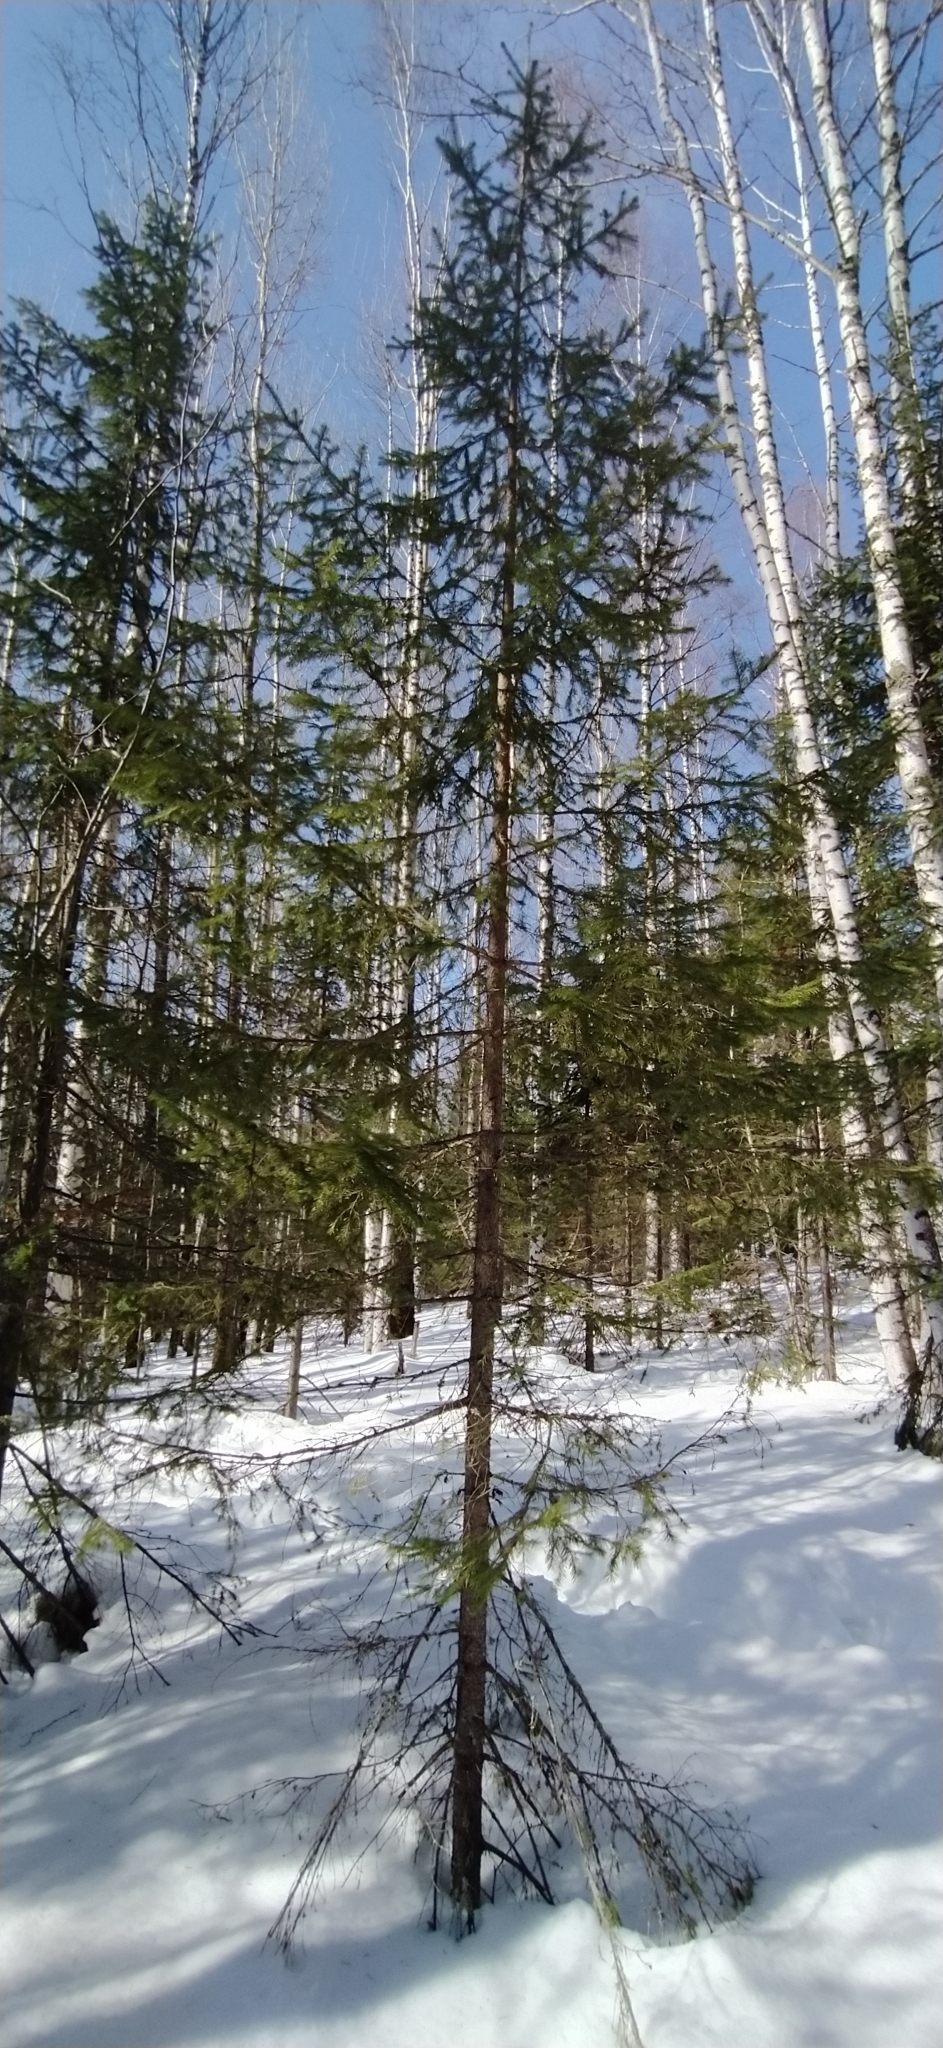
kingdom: Plantae
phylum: Tracheophyta
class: Pinopsida
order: Pinales
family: Pinaceae
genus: Abies
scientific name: Abies sibirica
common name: Siberian fir
